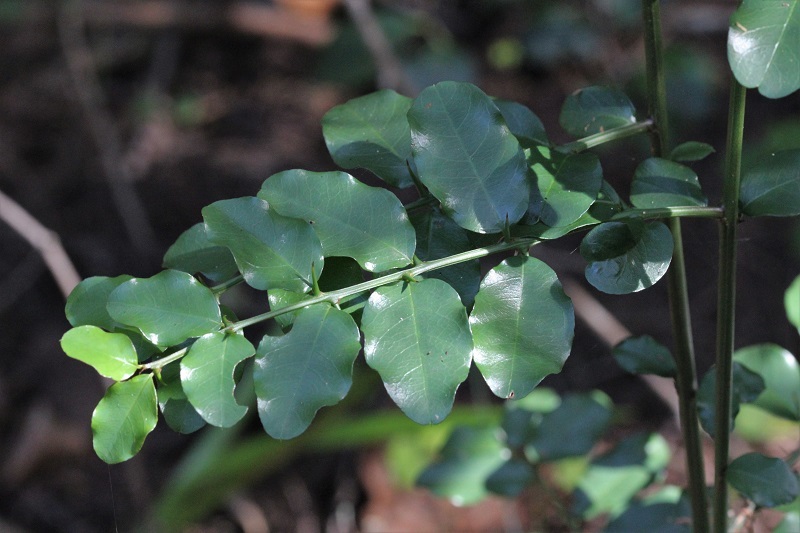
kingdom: Plantae
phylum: Tracheophyta
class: Magnoliopsida
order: Rosales
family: Rhamnaceae
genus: Scutia
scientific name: Scutia myrtina
